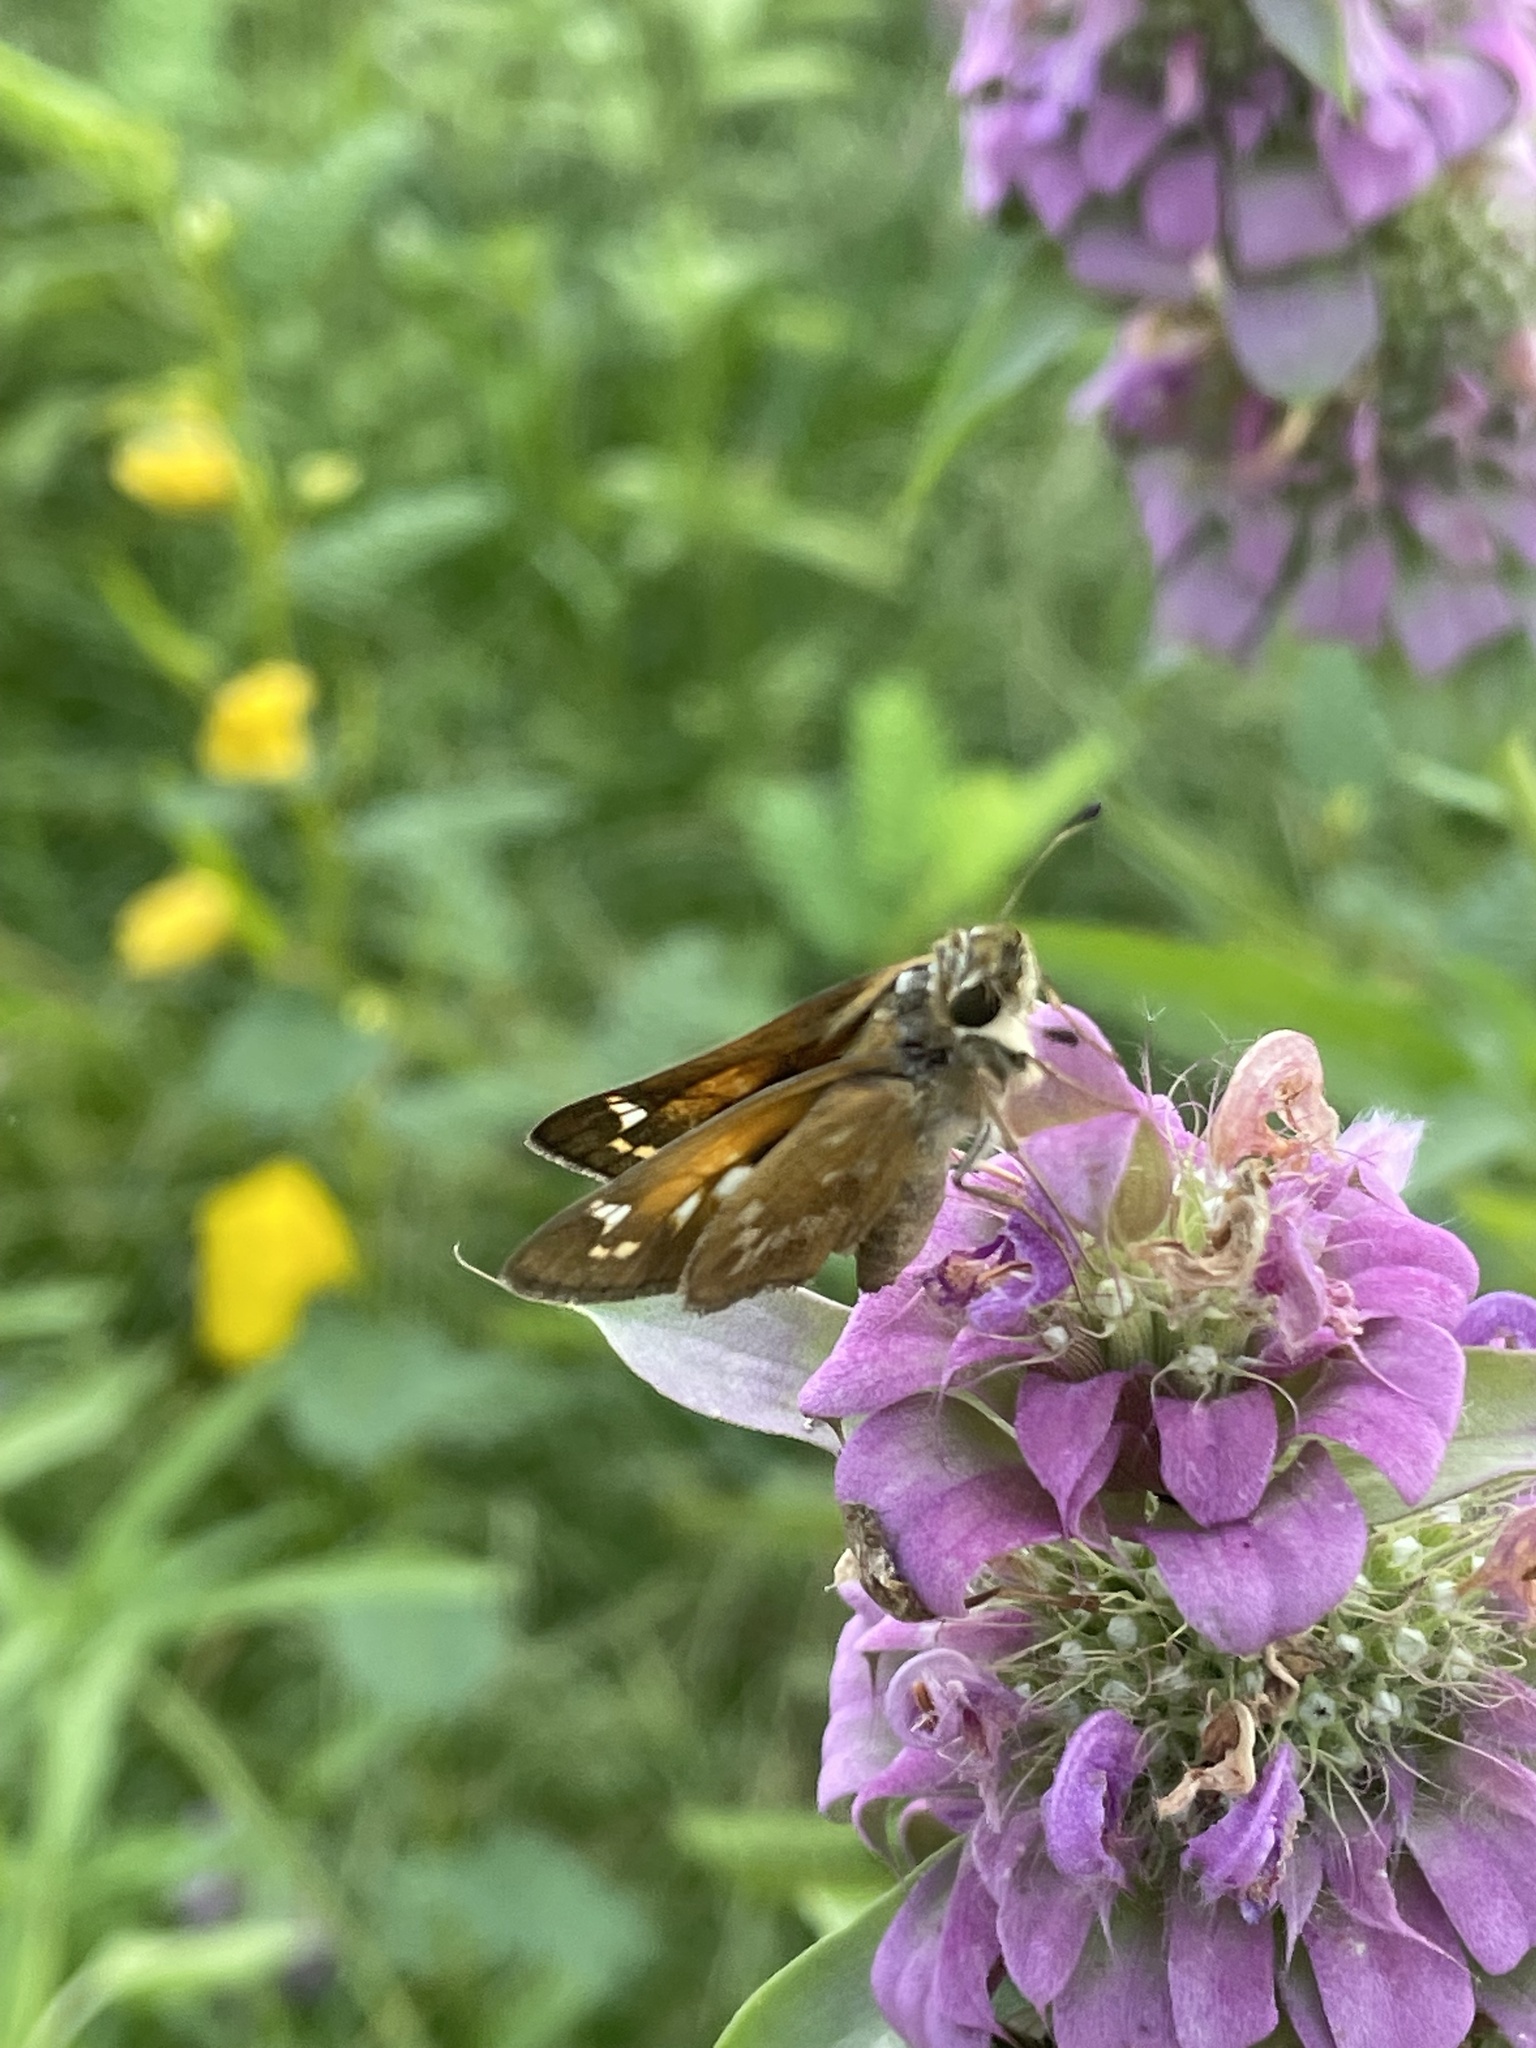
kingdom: Animalia
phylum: Arthropoda
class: Insecta
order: Lepidoptera
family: Hesperiidae
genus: Atalopedes
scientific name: Atalopedes
